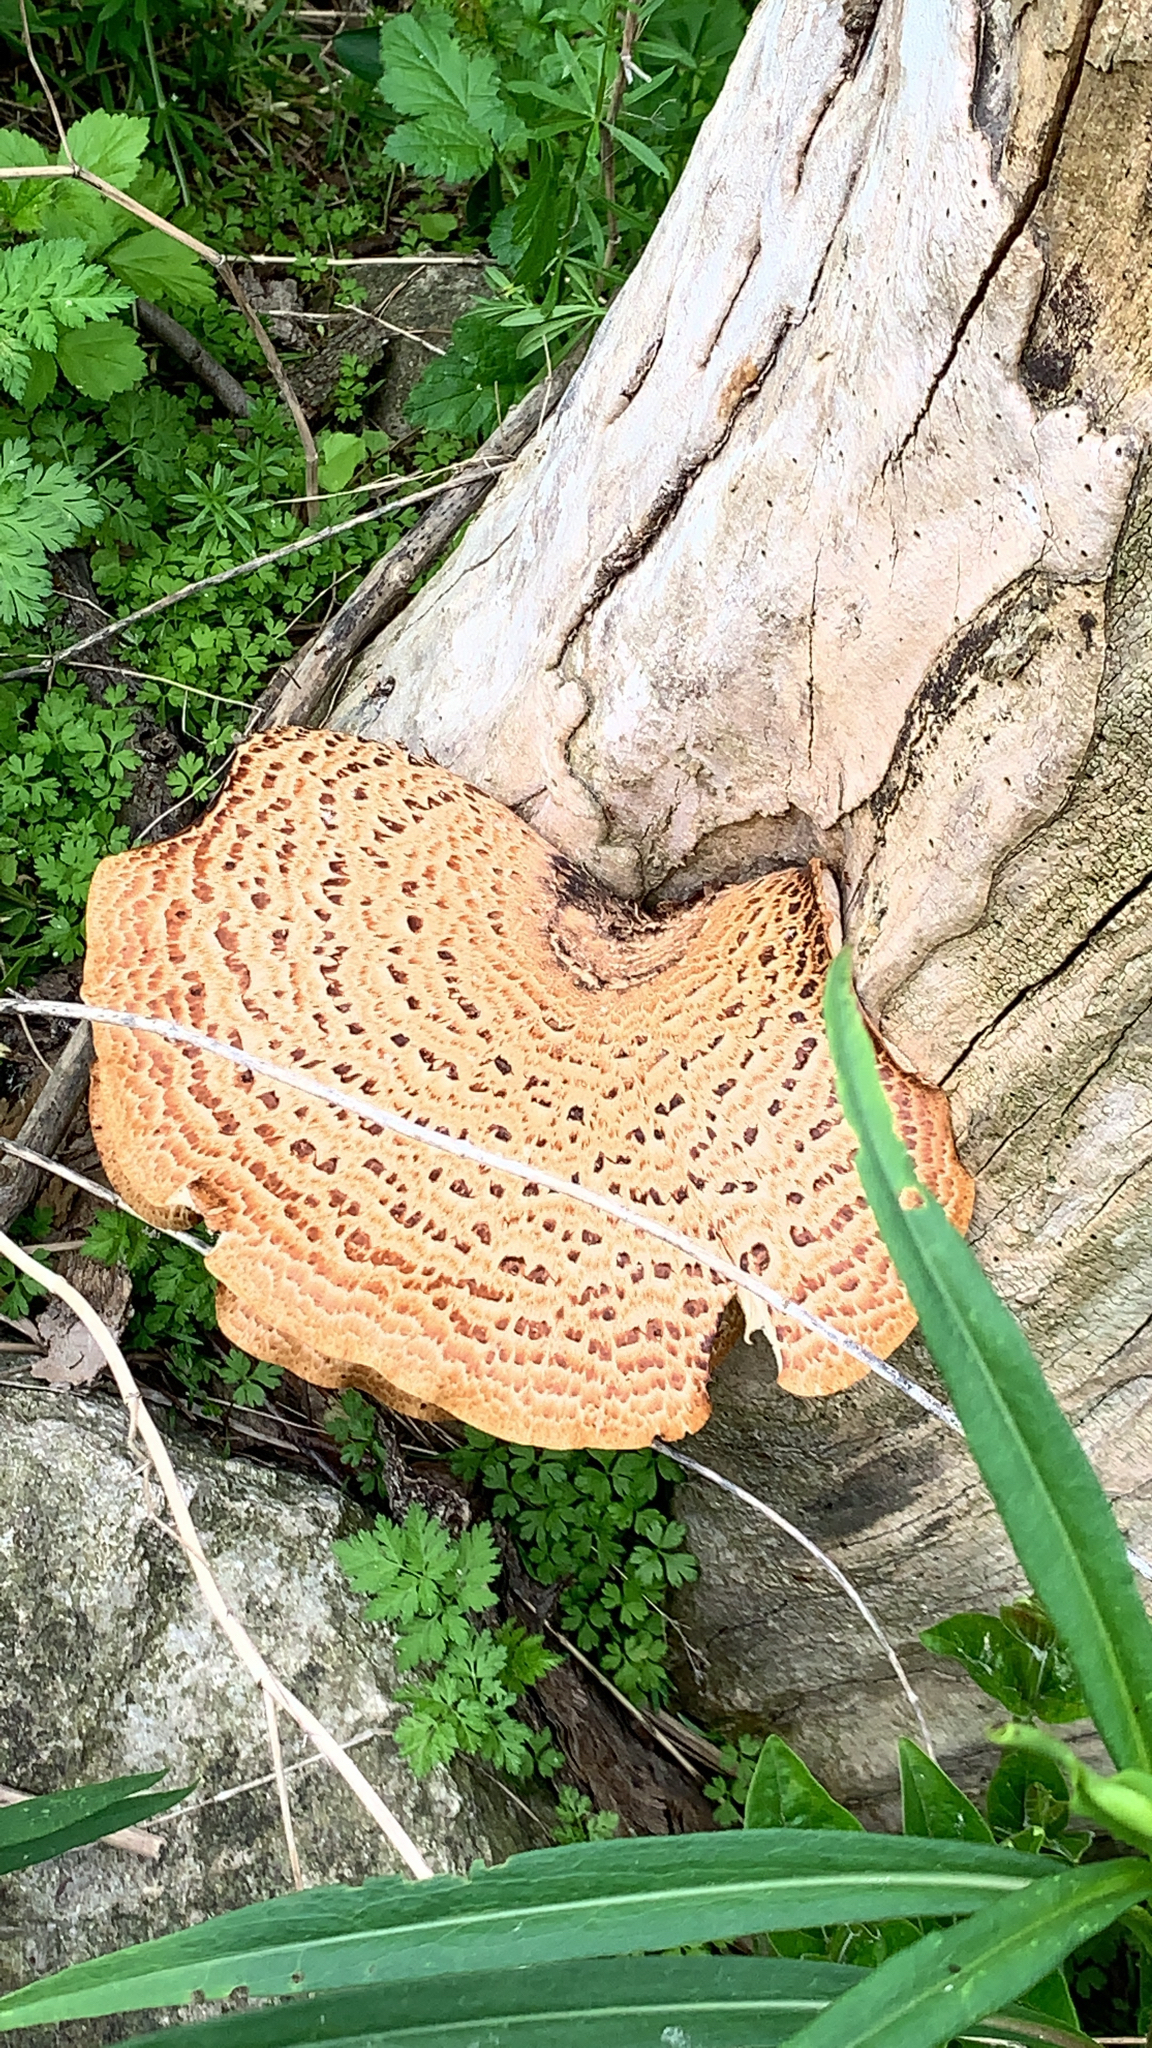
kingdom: Fungi
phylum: Basidiomycota
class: Agaricomycetes
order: Polyporales
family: Polyporaceae
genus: Cerioporus
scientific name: Cerioporus squamosus
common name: Dryad's saddle
